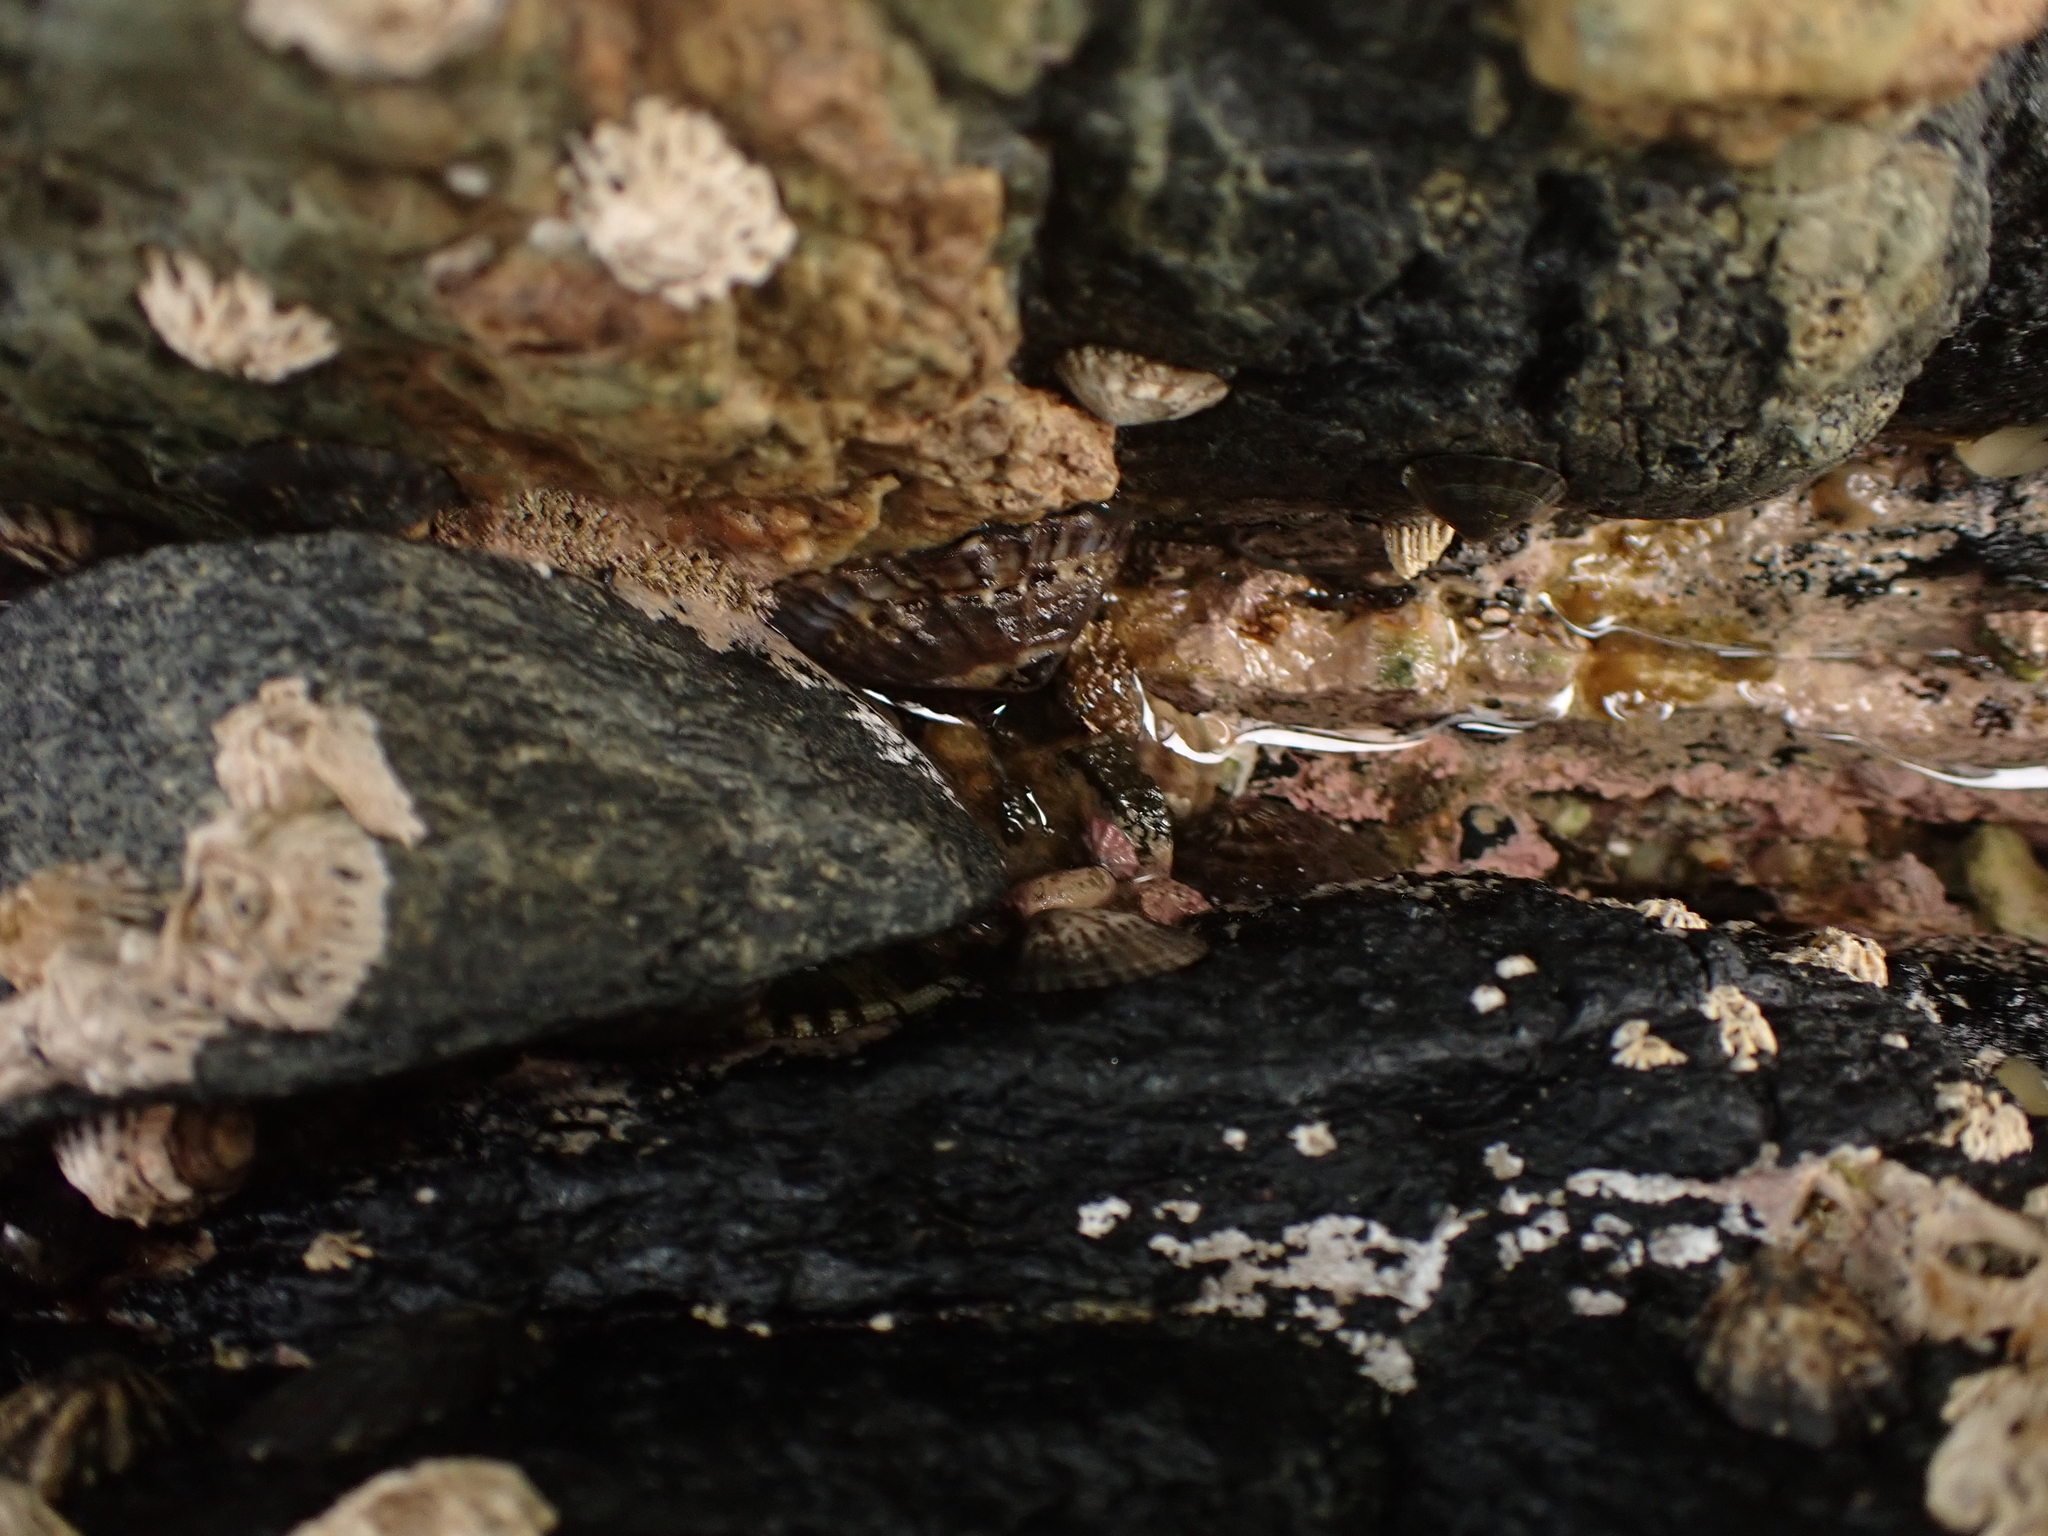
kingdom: Animalia
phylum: Mollusca
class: Gastropoda
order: Siphonariida
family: Siphonariidae
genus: Benhamina
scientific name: Benhamina obliquata
